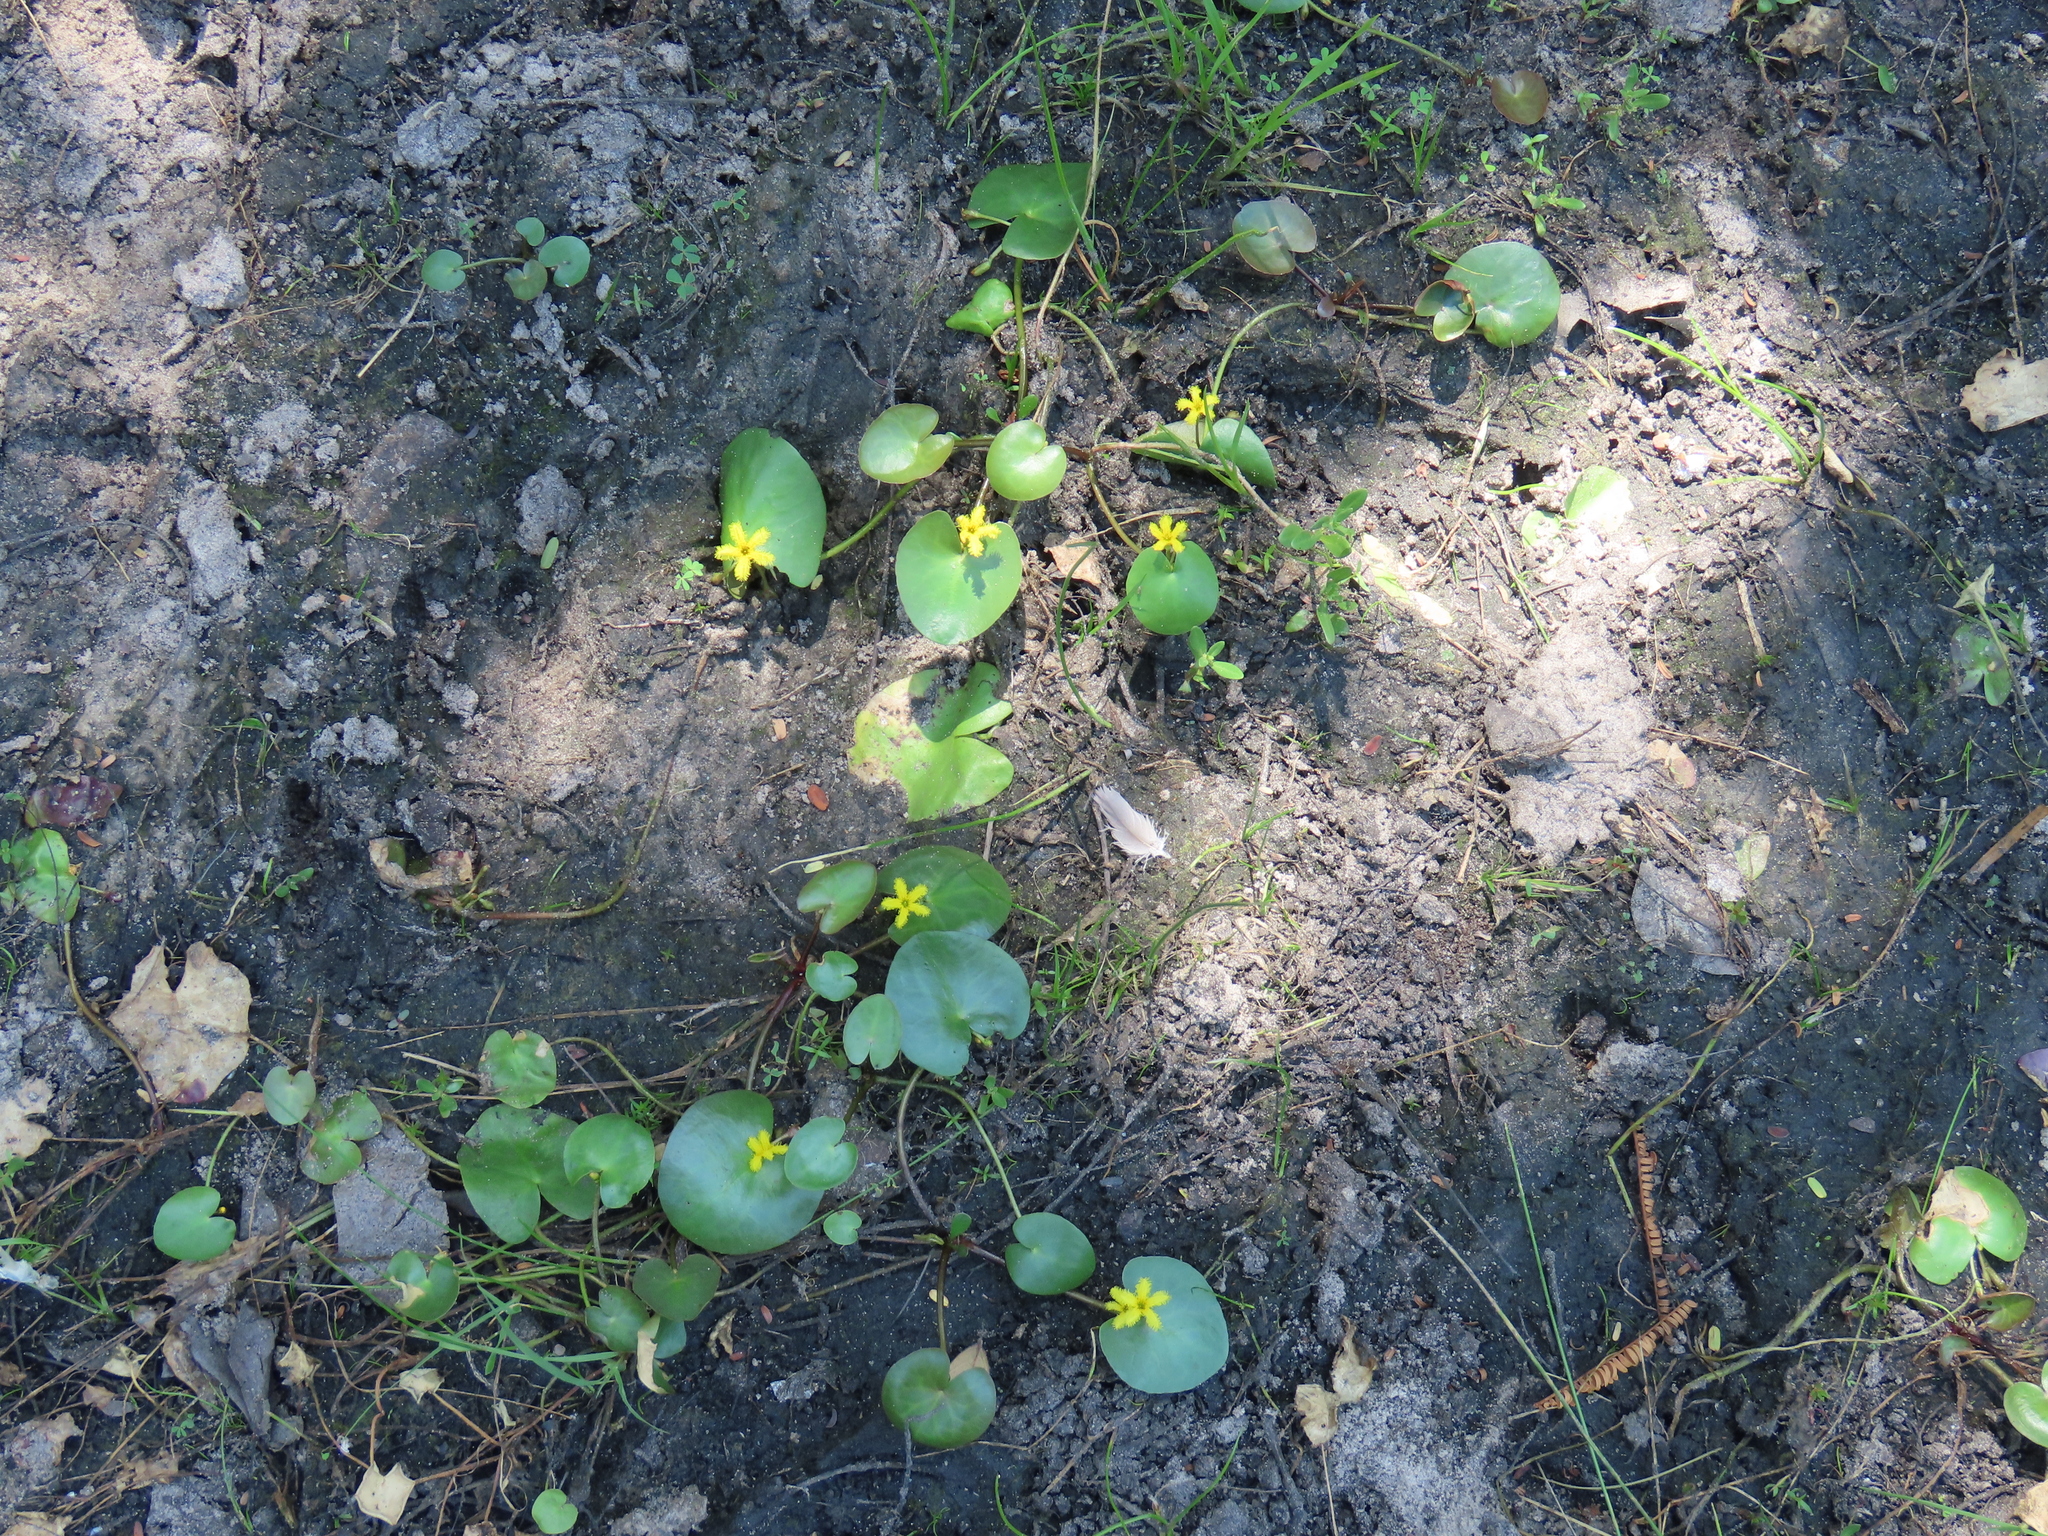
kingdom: Plantae
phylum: Tracheophyta
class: Magnoliopsida
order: Asterales
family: Menyanthaceae
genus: Nymphoides
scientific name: Nymphoides rautanenii
